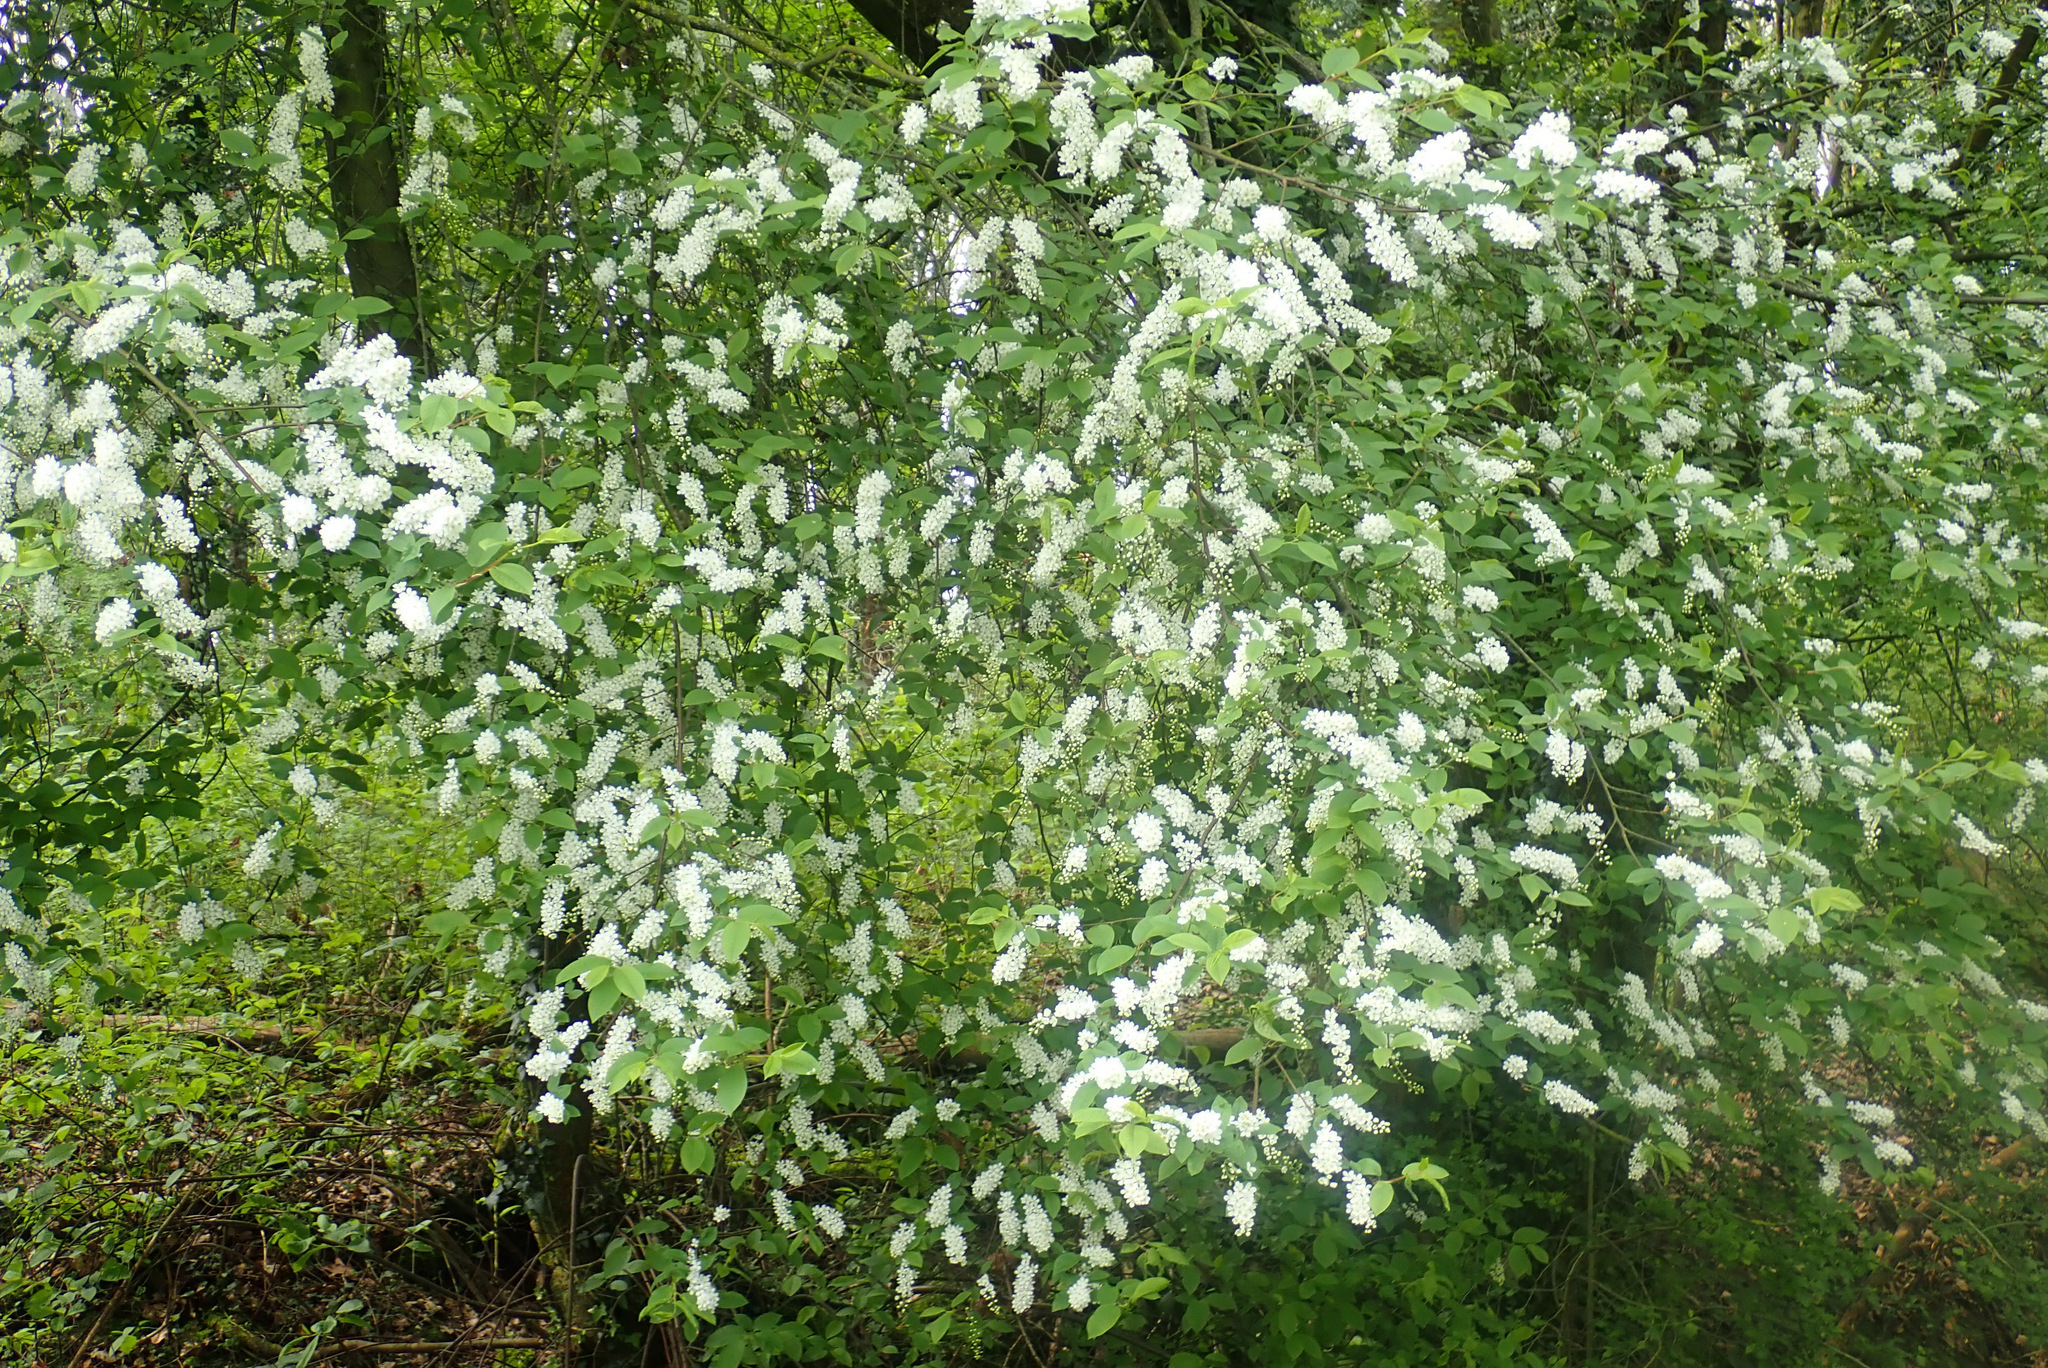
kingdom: Plantae
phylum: Tracheophyta
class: Magnoliopsida
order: Rosales
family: Rosaceae
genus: Prunus
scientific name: Prunus padus
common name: Bird cherry
